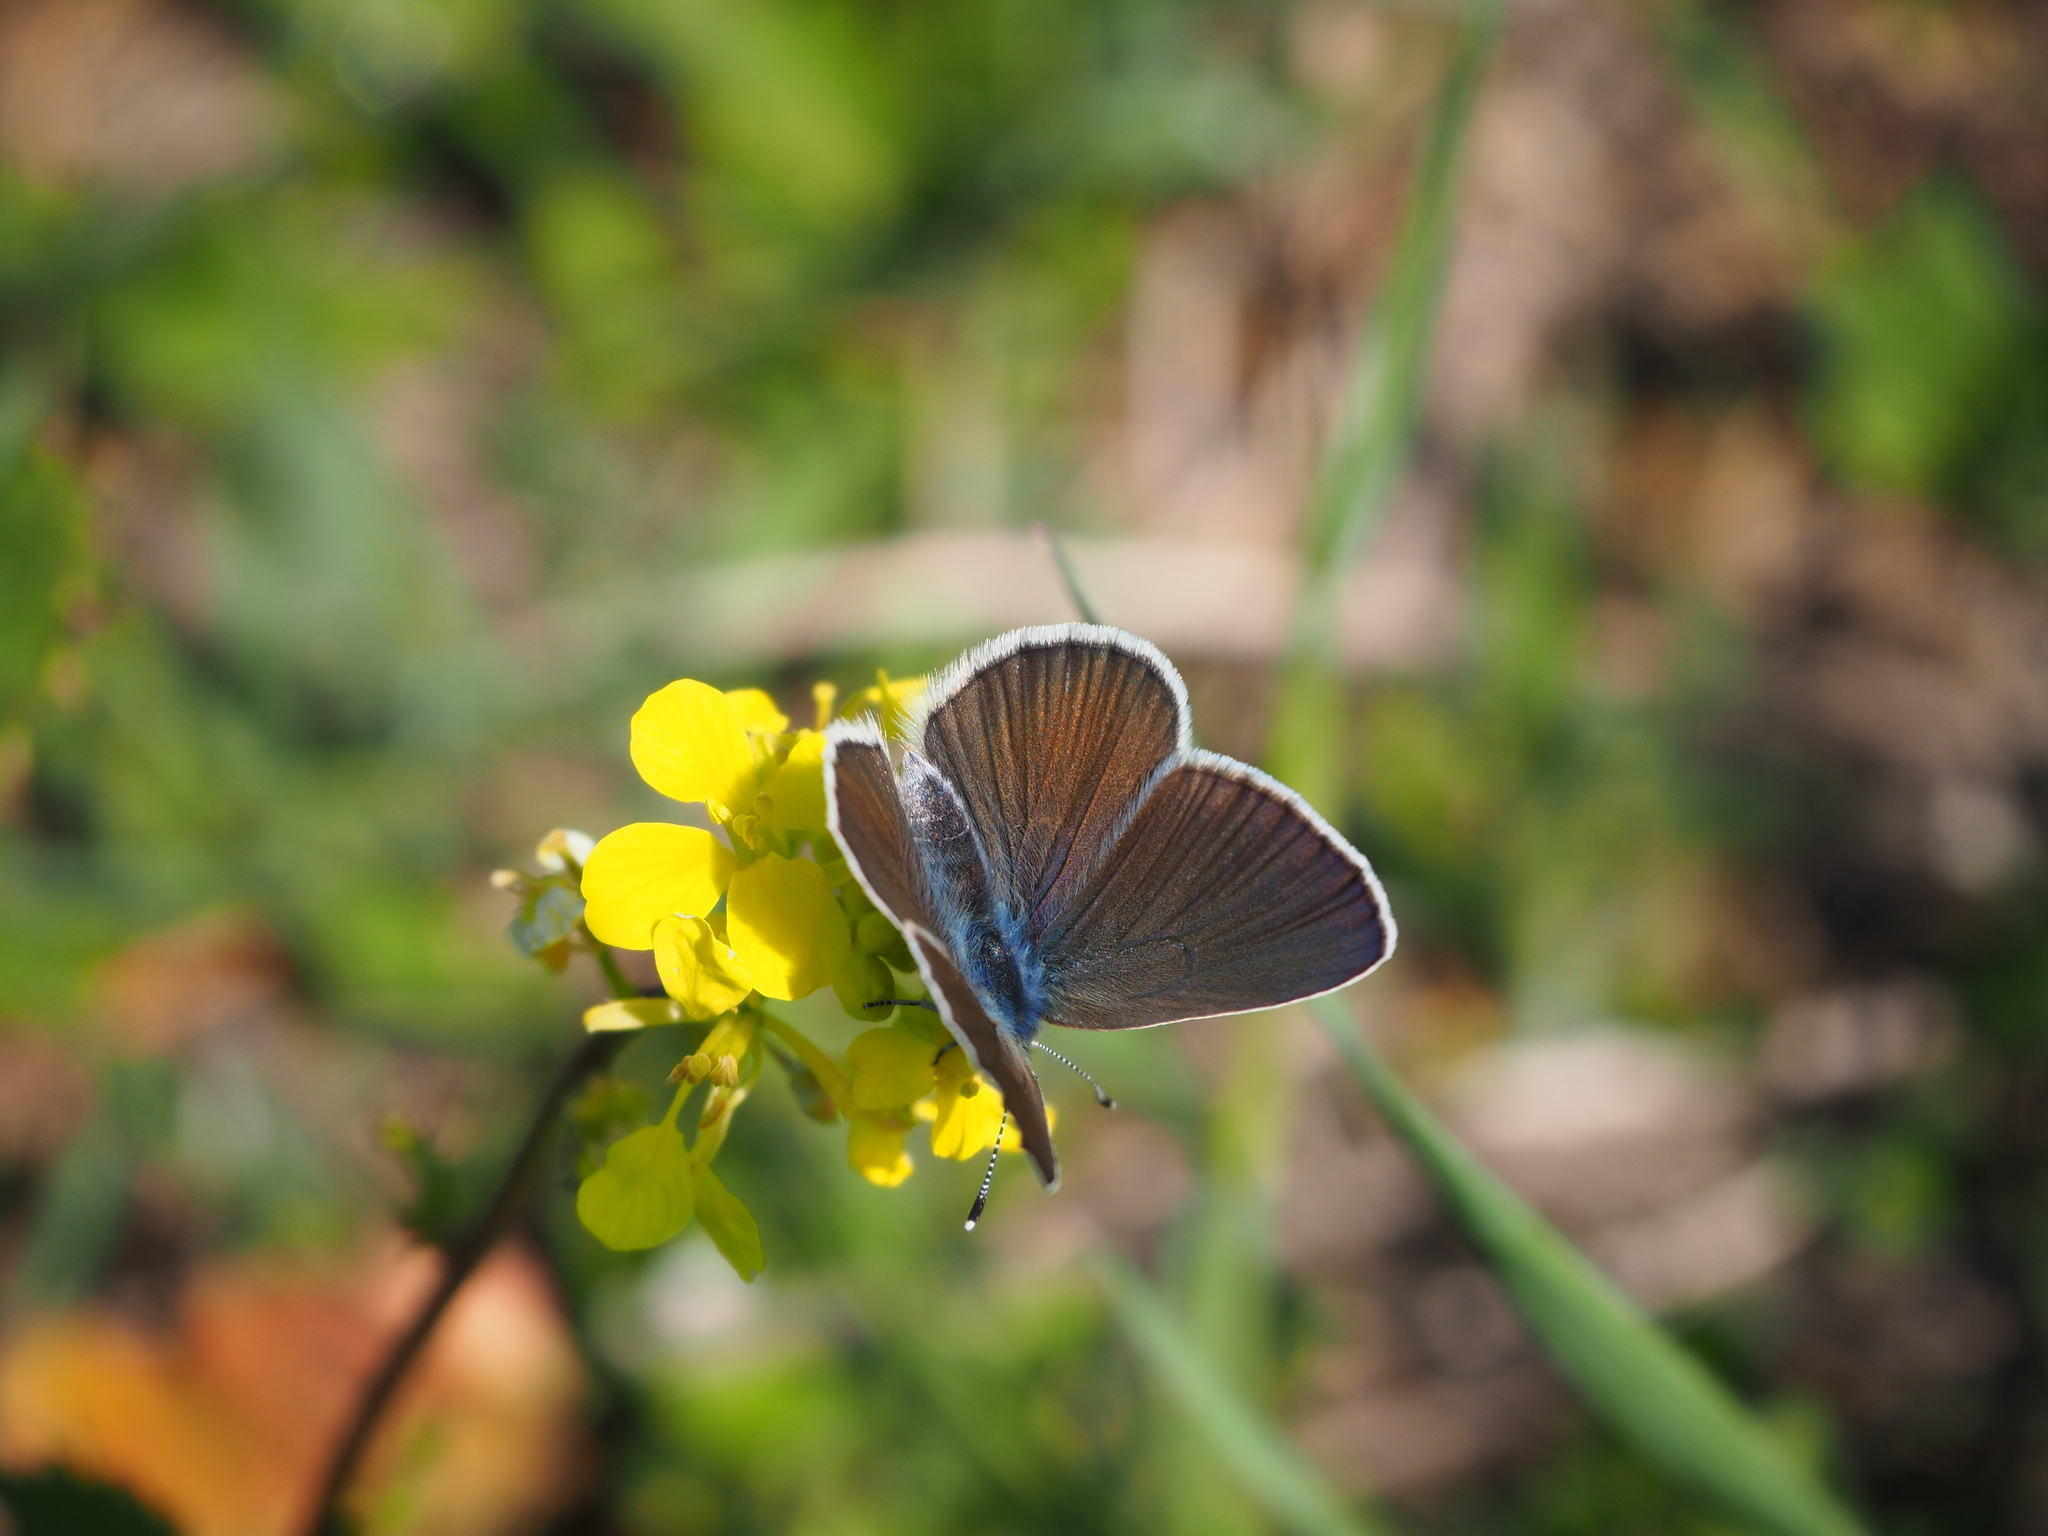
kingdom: Animalia
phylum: Arthropoda
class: Insecta
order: Lepidoptera
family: Lycaenidae
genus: Glaucopsyche
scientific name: Glaucopsyche alexis
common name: Green-underside blue
